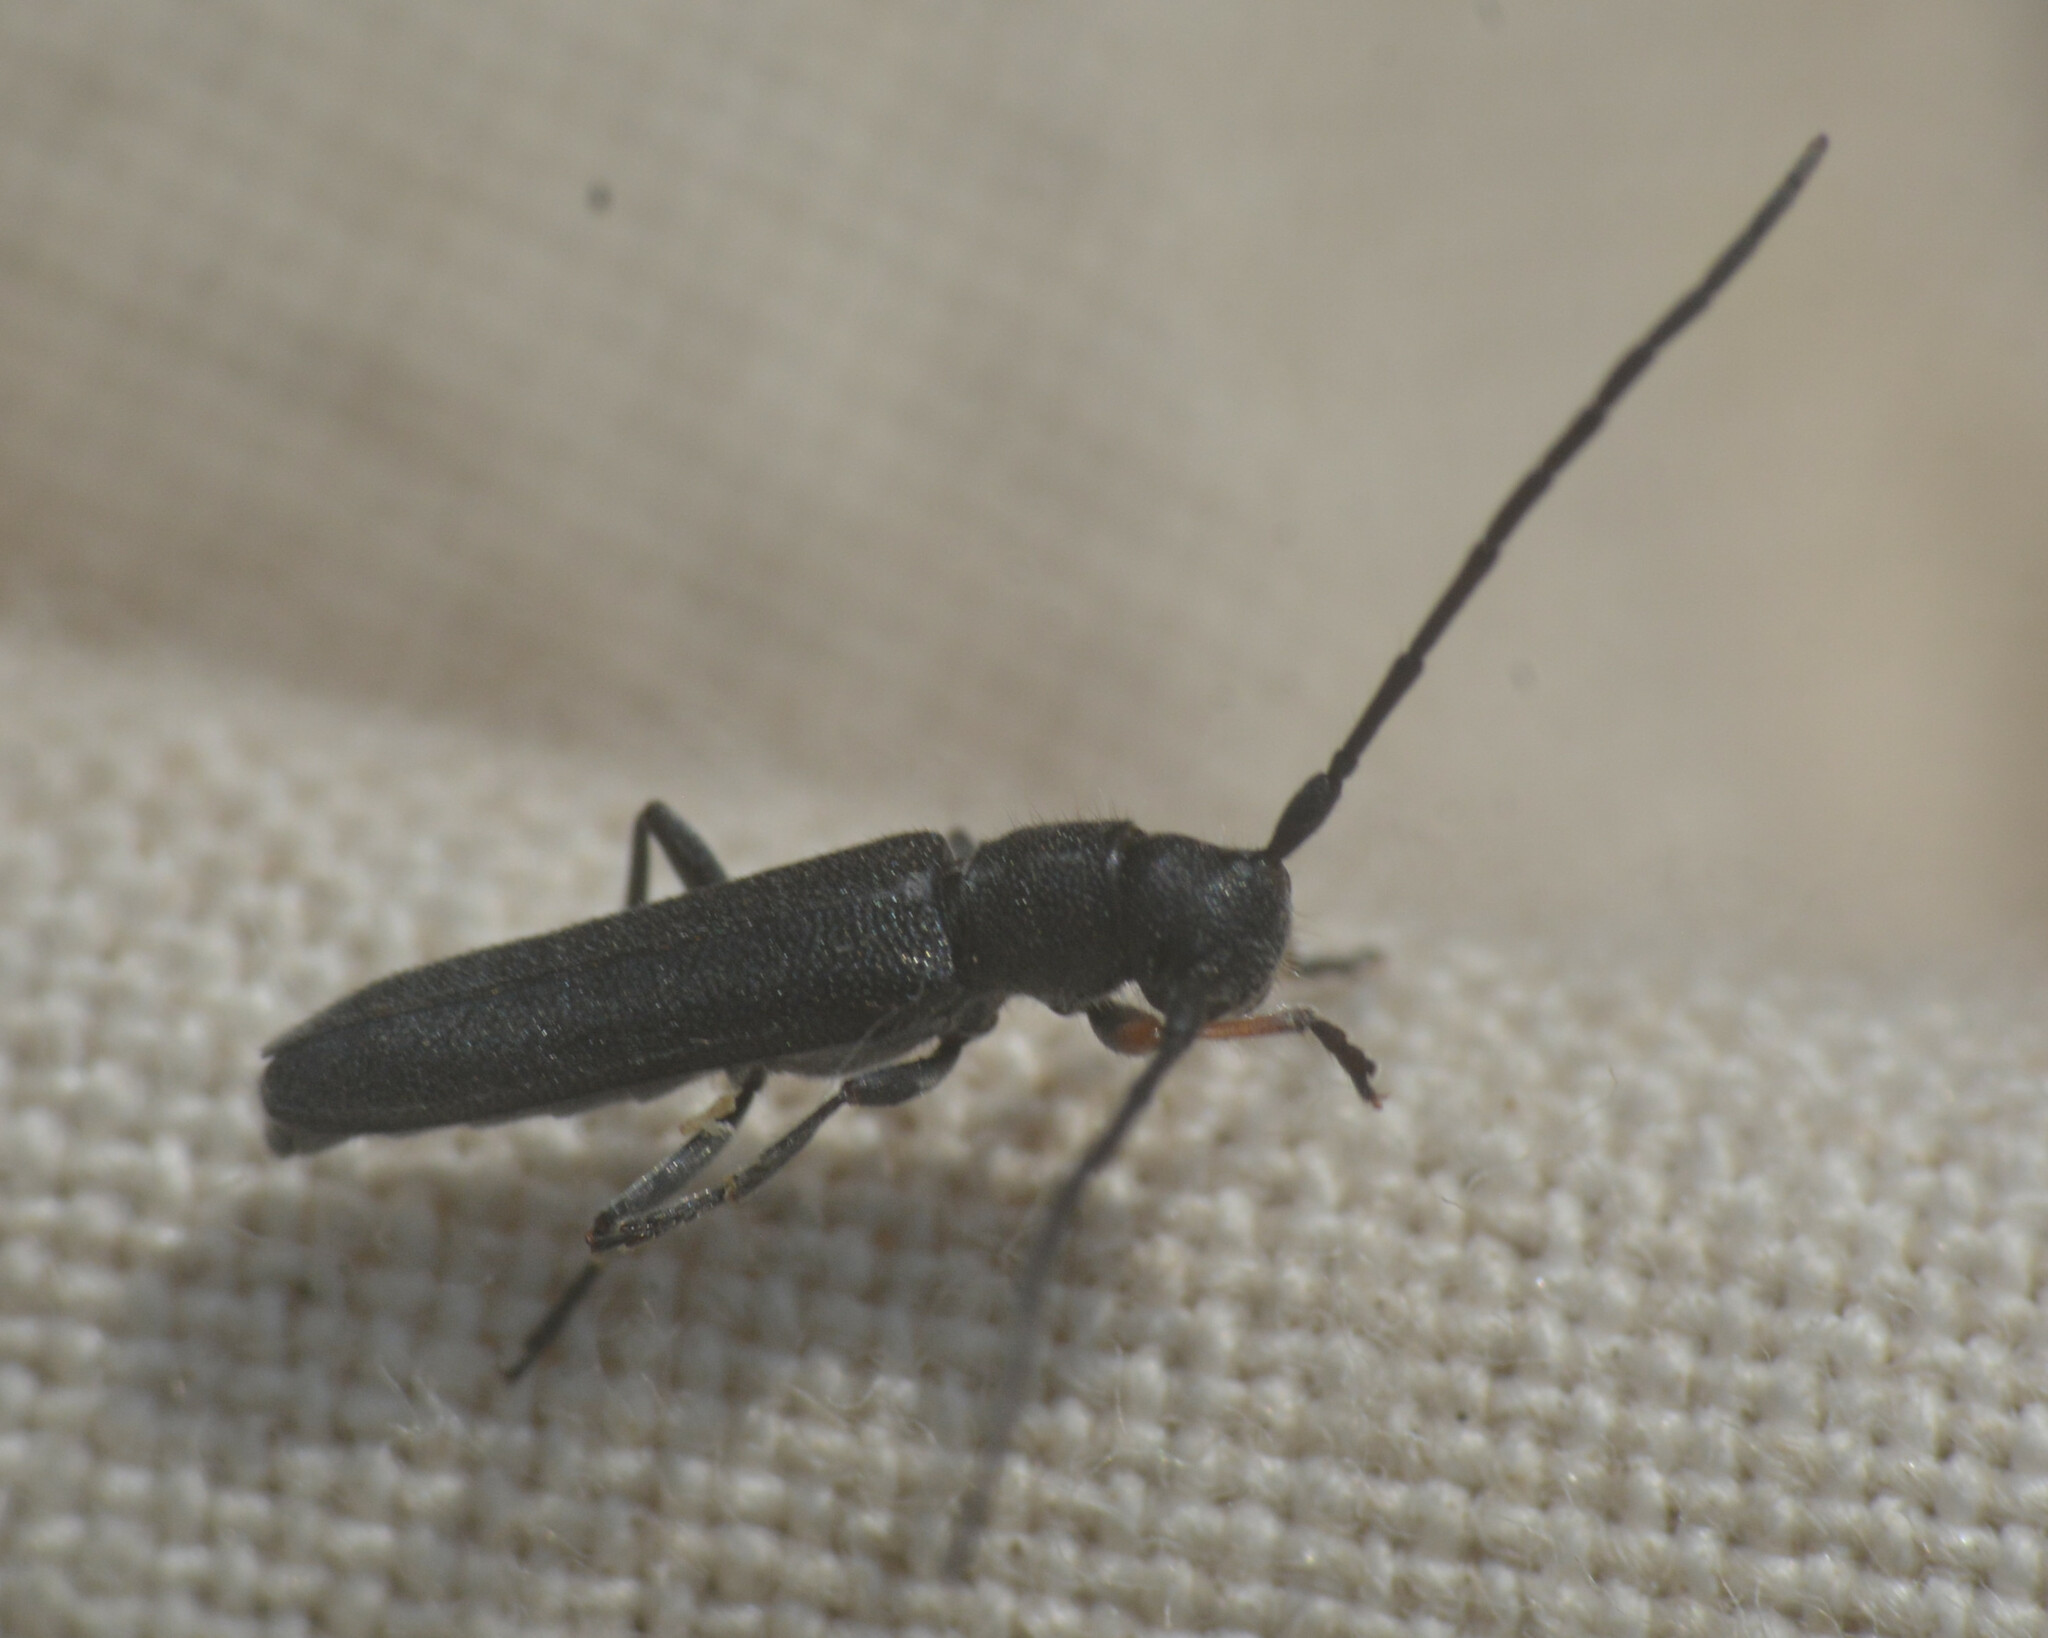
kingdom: Animalia
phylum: Arthropoda
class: Insecta
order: Coleoptera
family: Cerambycidae
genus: Phytoecia
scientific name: Phytoecia cylindrica
